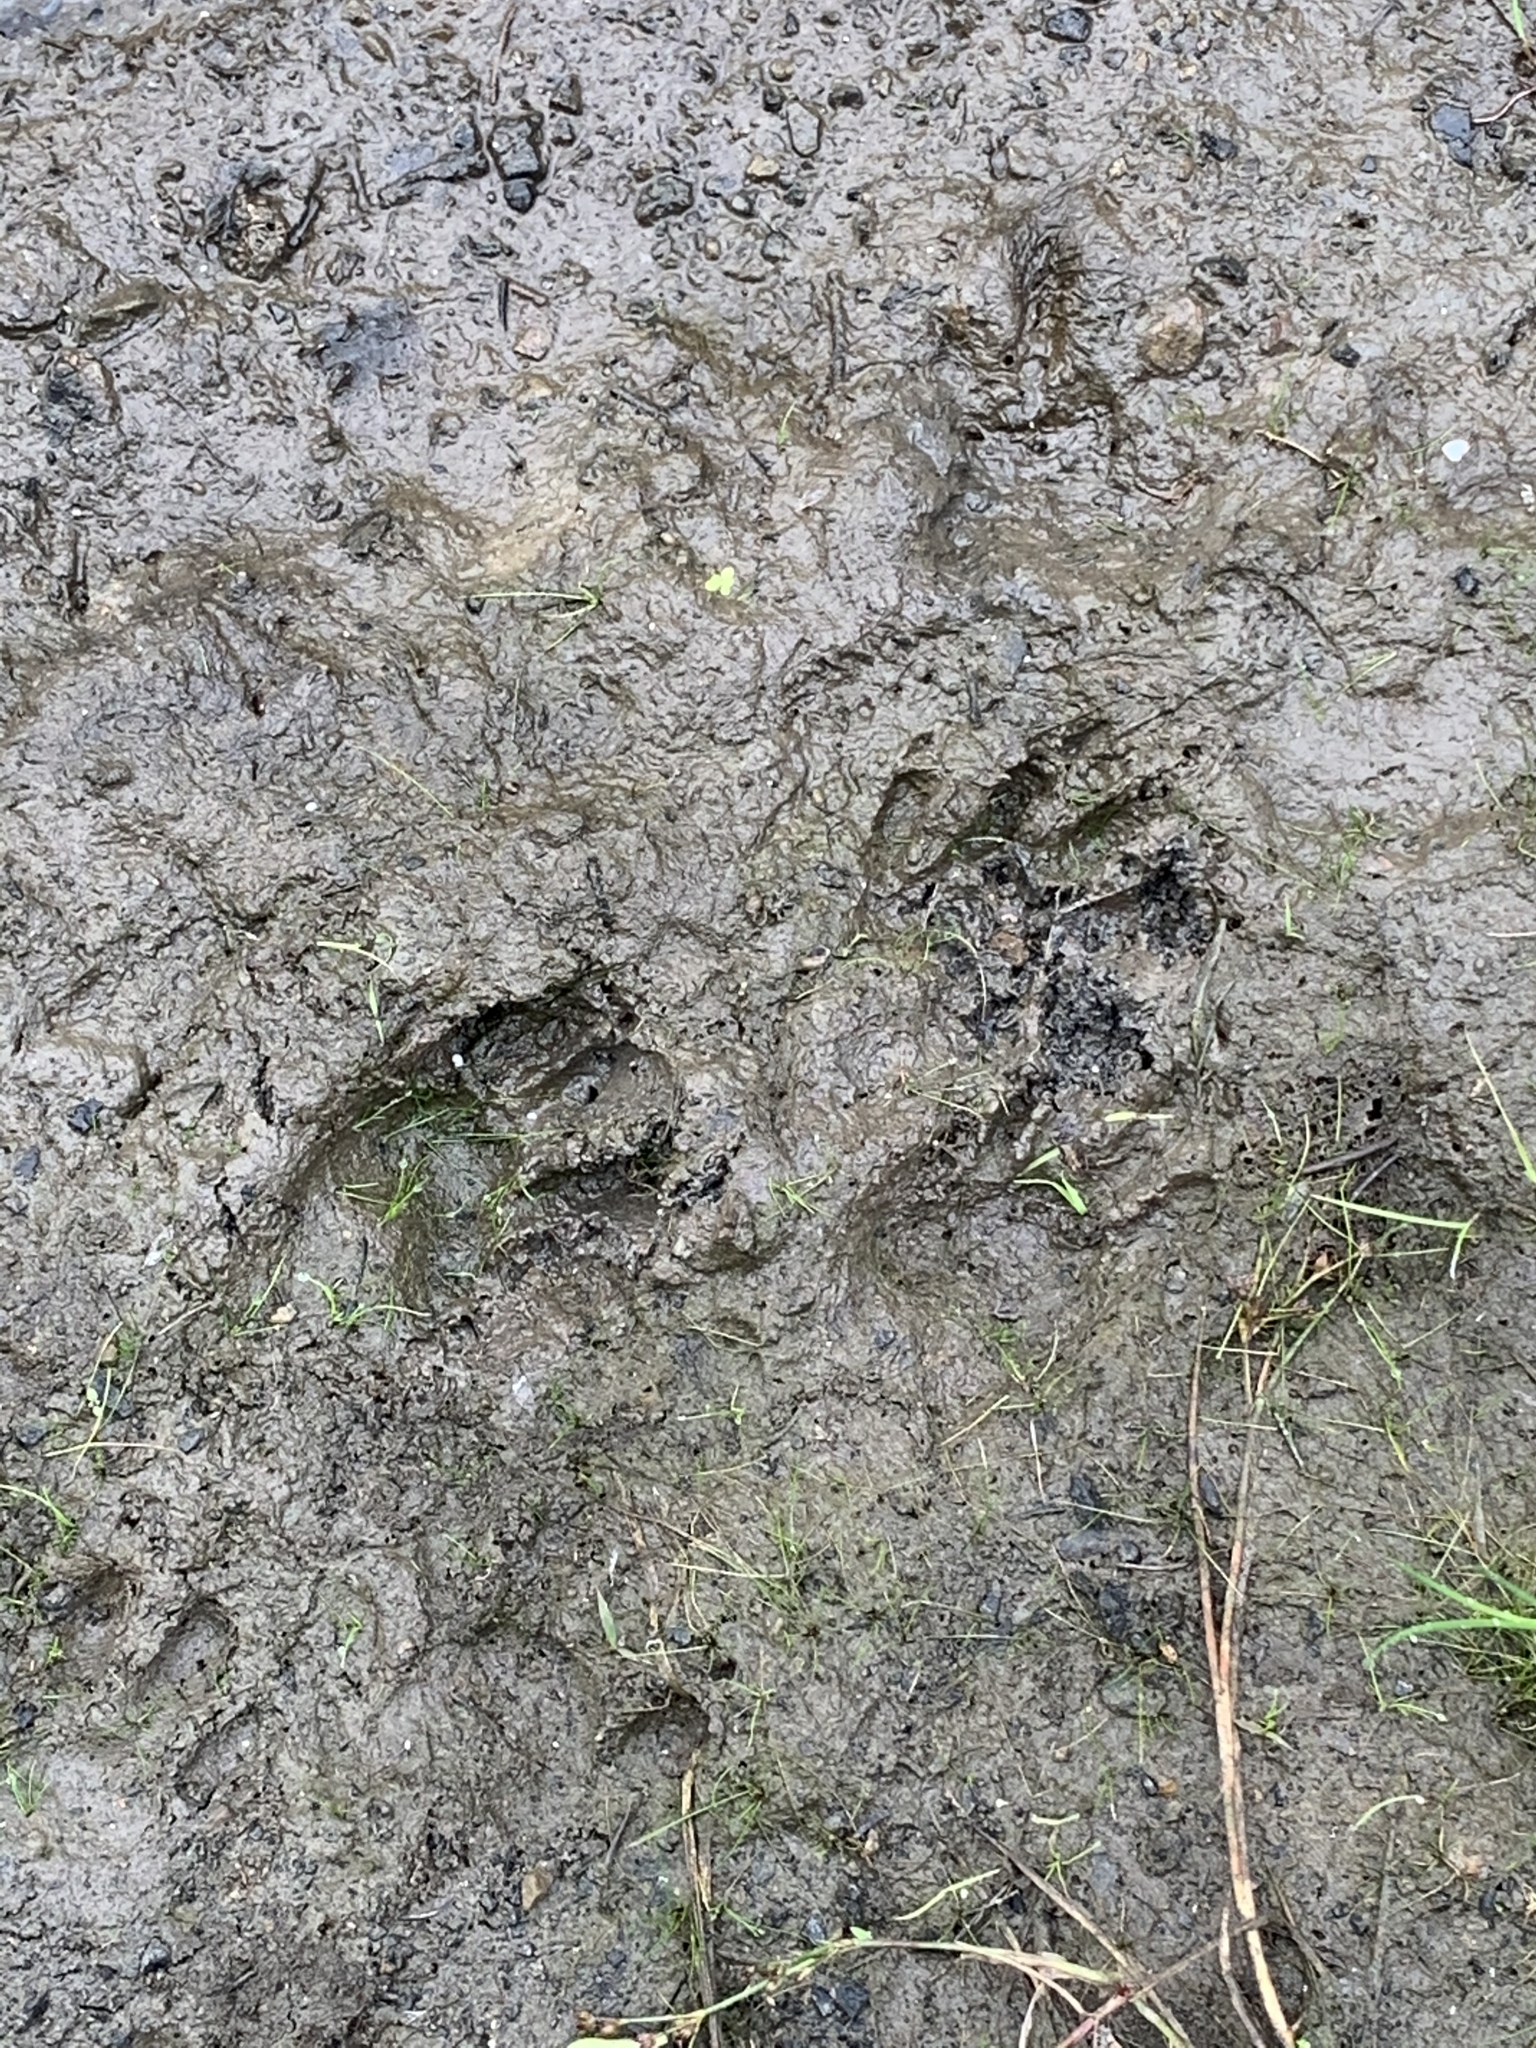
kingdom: Animalia
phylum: Chordata
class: Mammalia
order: Carnivora
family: Procyonidae
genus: Procyon
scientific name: Procyon lotor
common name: Raccoon
